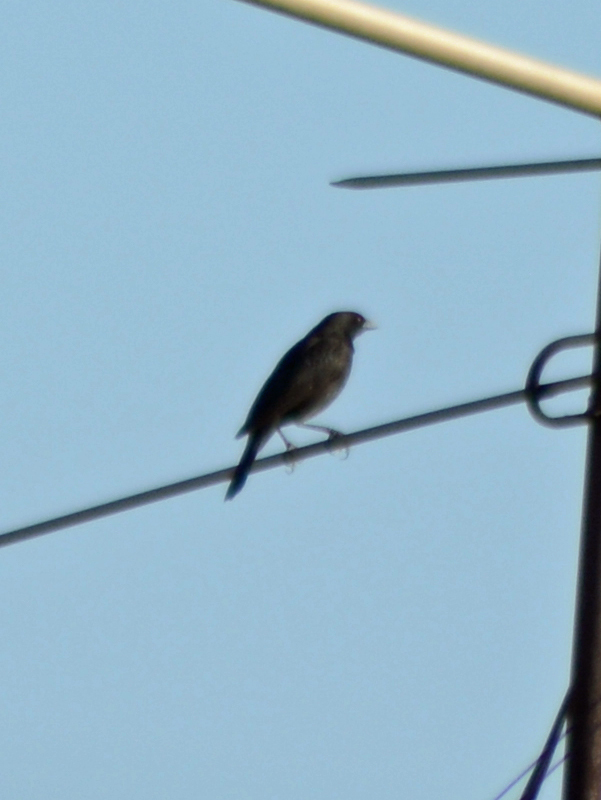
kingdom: Animalia
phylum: Chordata
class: Aves
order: Passeriformes
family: Icteridae
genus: Molothrus
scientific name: Molothrus aeneus
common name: Bronzed cowbird
